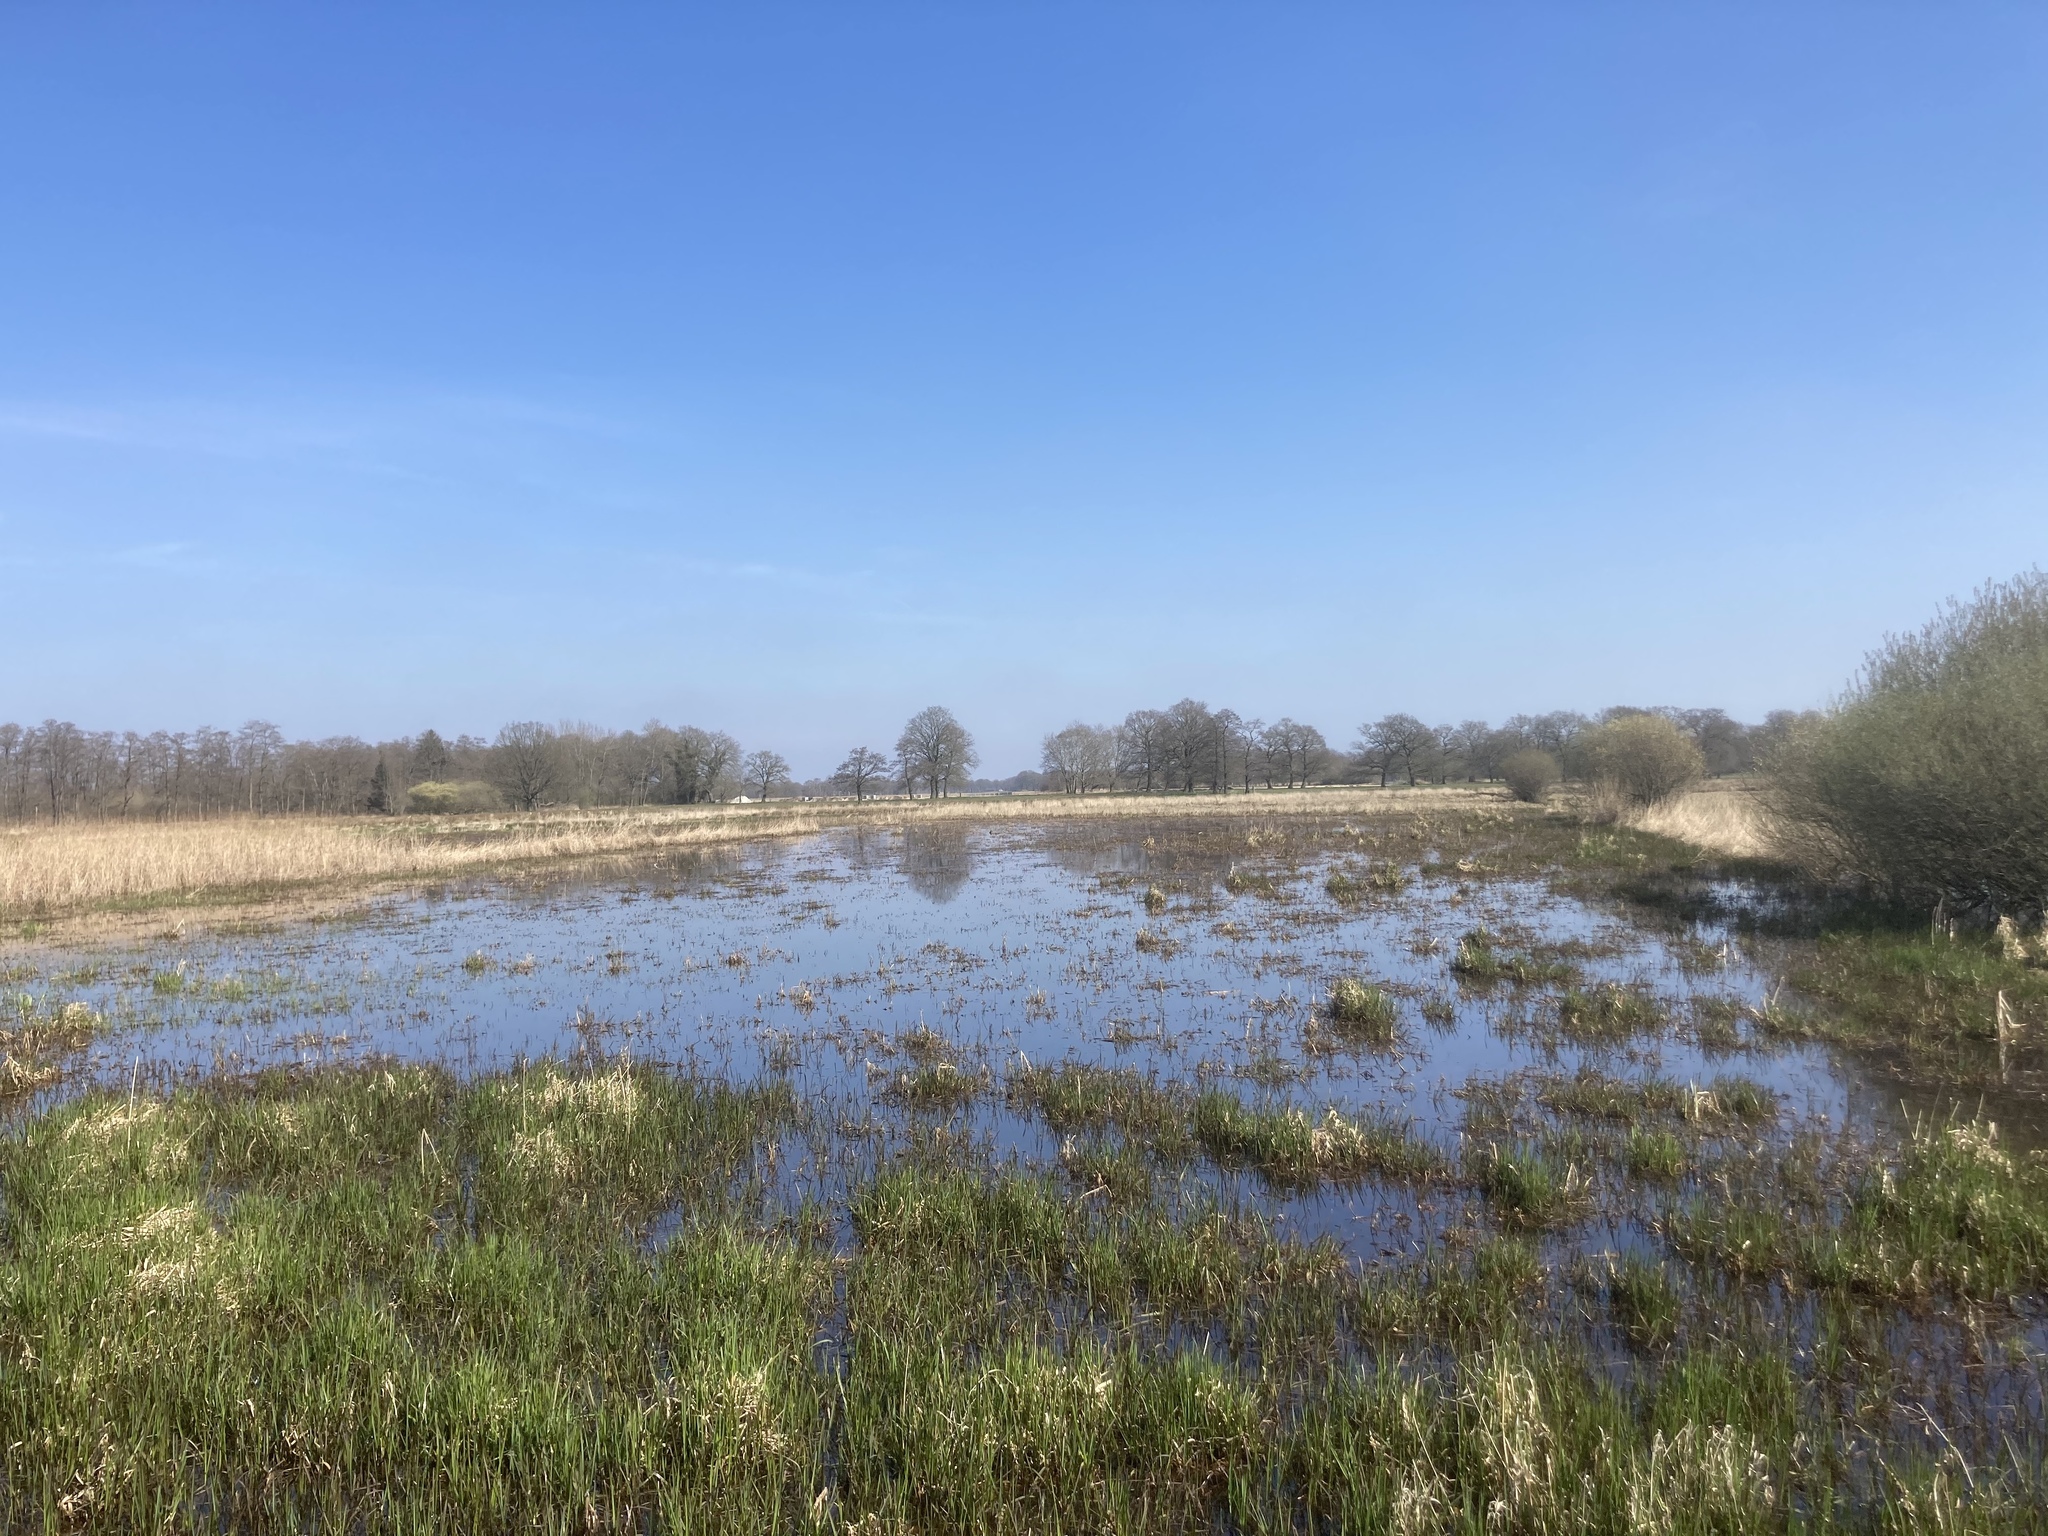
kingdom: Plantae
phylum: Tracheophyta
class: Liliopsida
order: Poales
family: Poaceae
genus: Phragmites
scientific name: Phragmites australis
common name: Common reed
